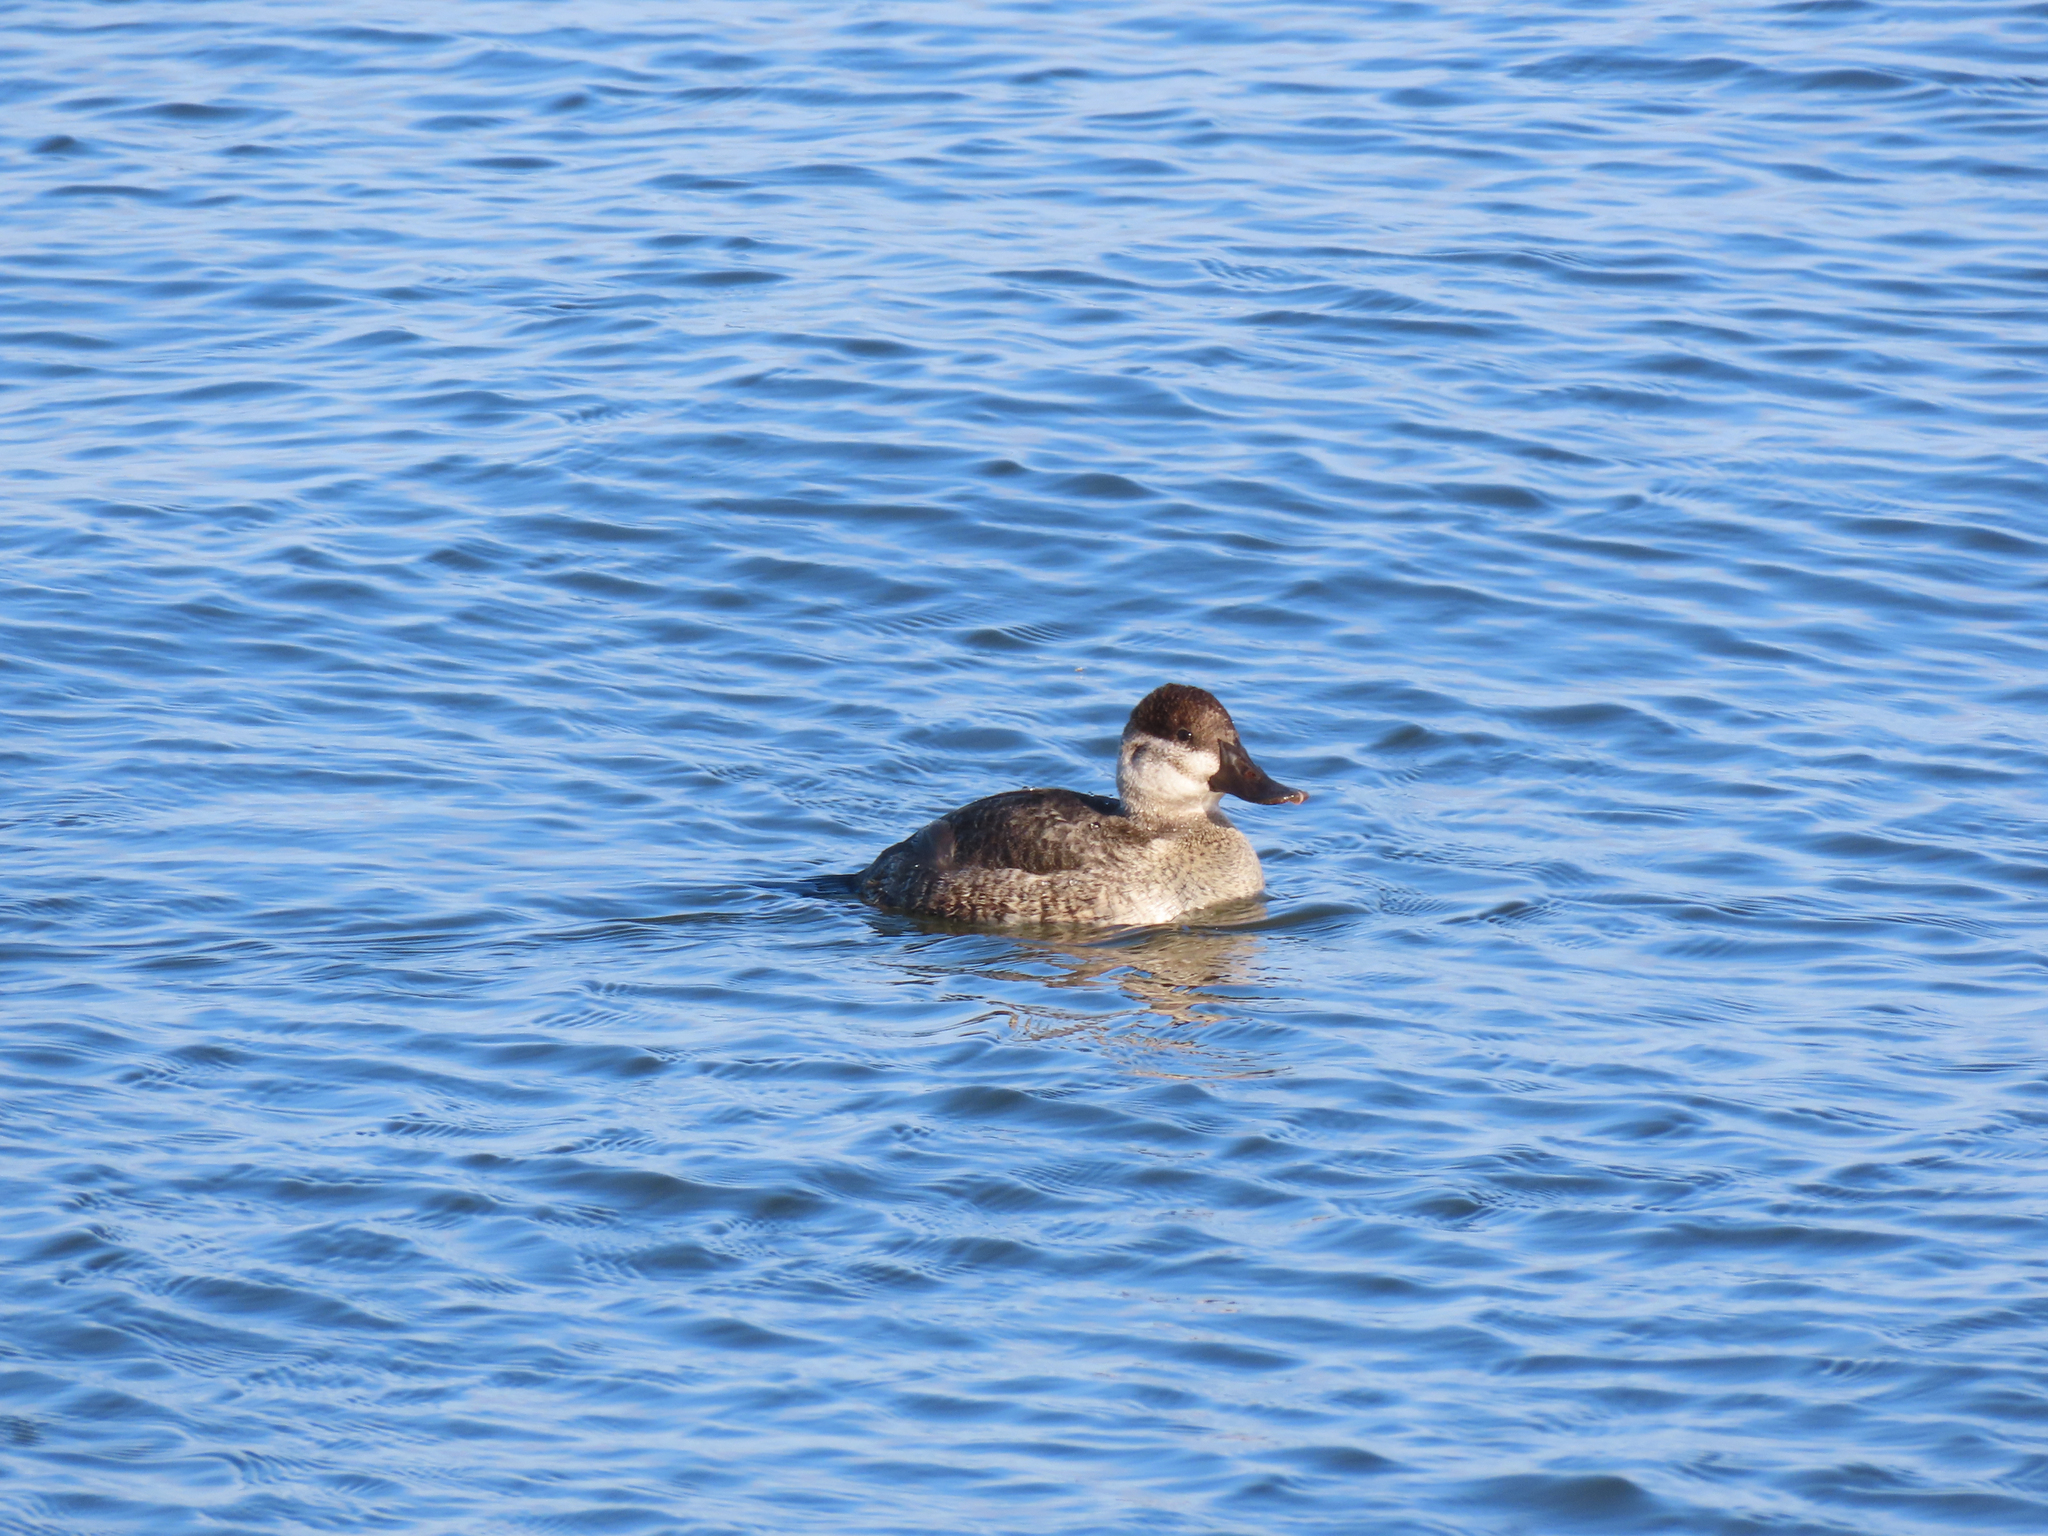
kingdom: Animalia
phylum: Chordata
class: Aves
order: Anseriformes
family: Anatidae
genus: Oxyura
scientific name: Oxyura jamaicensis
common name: Ruddy duck
